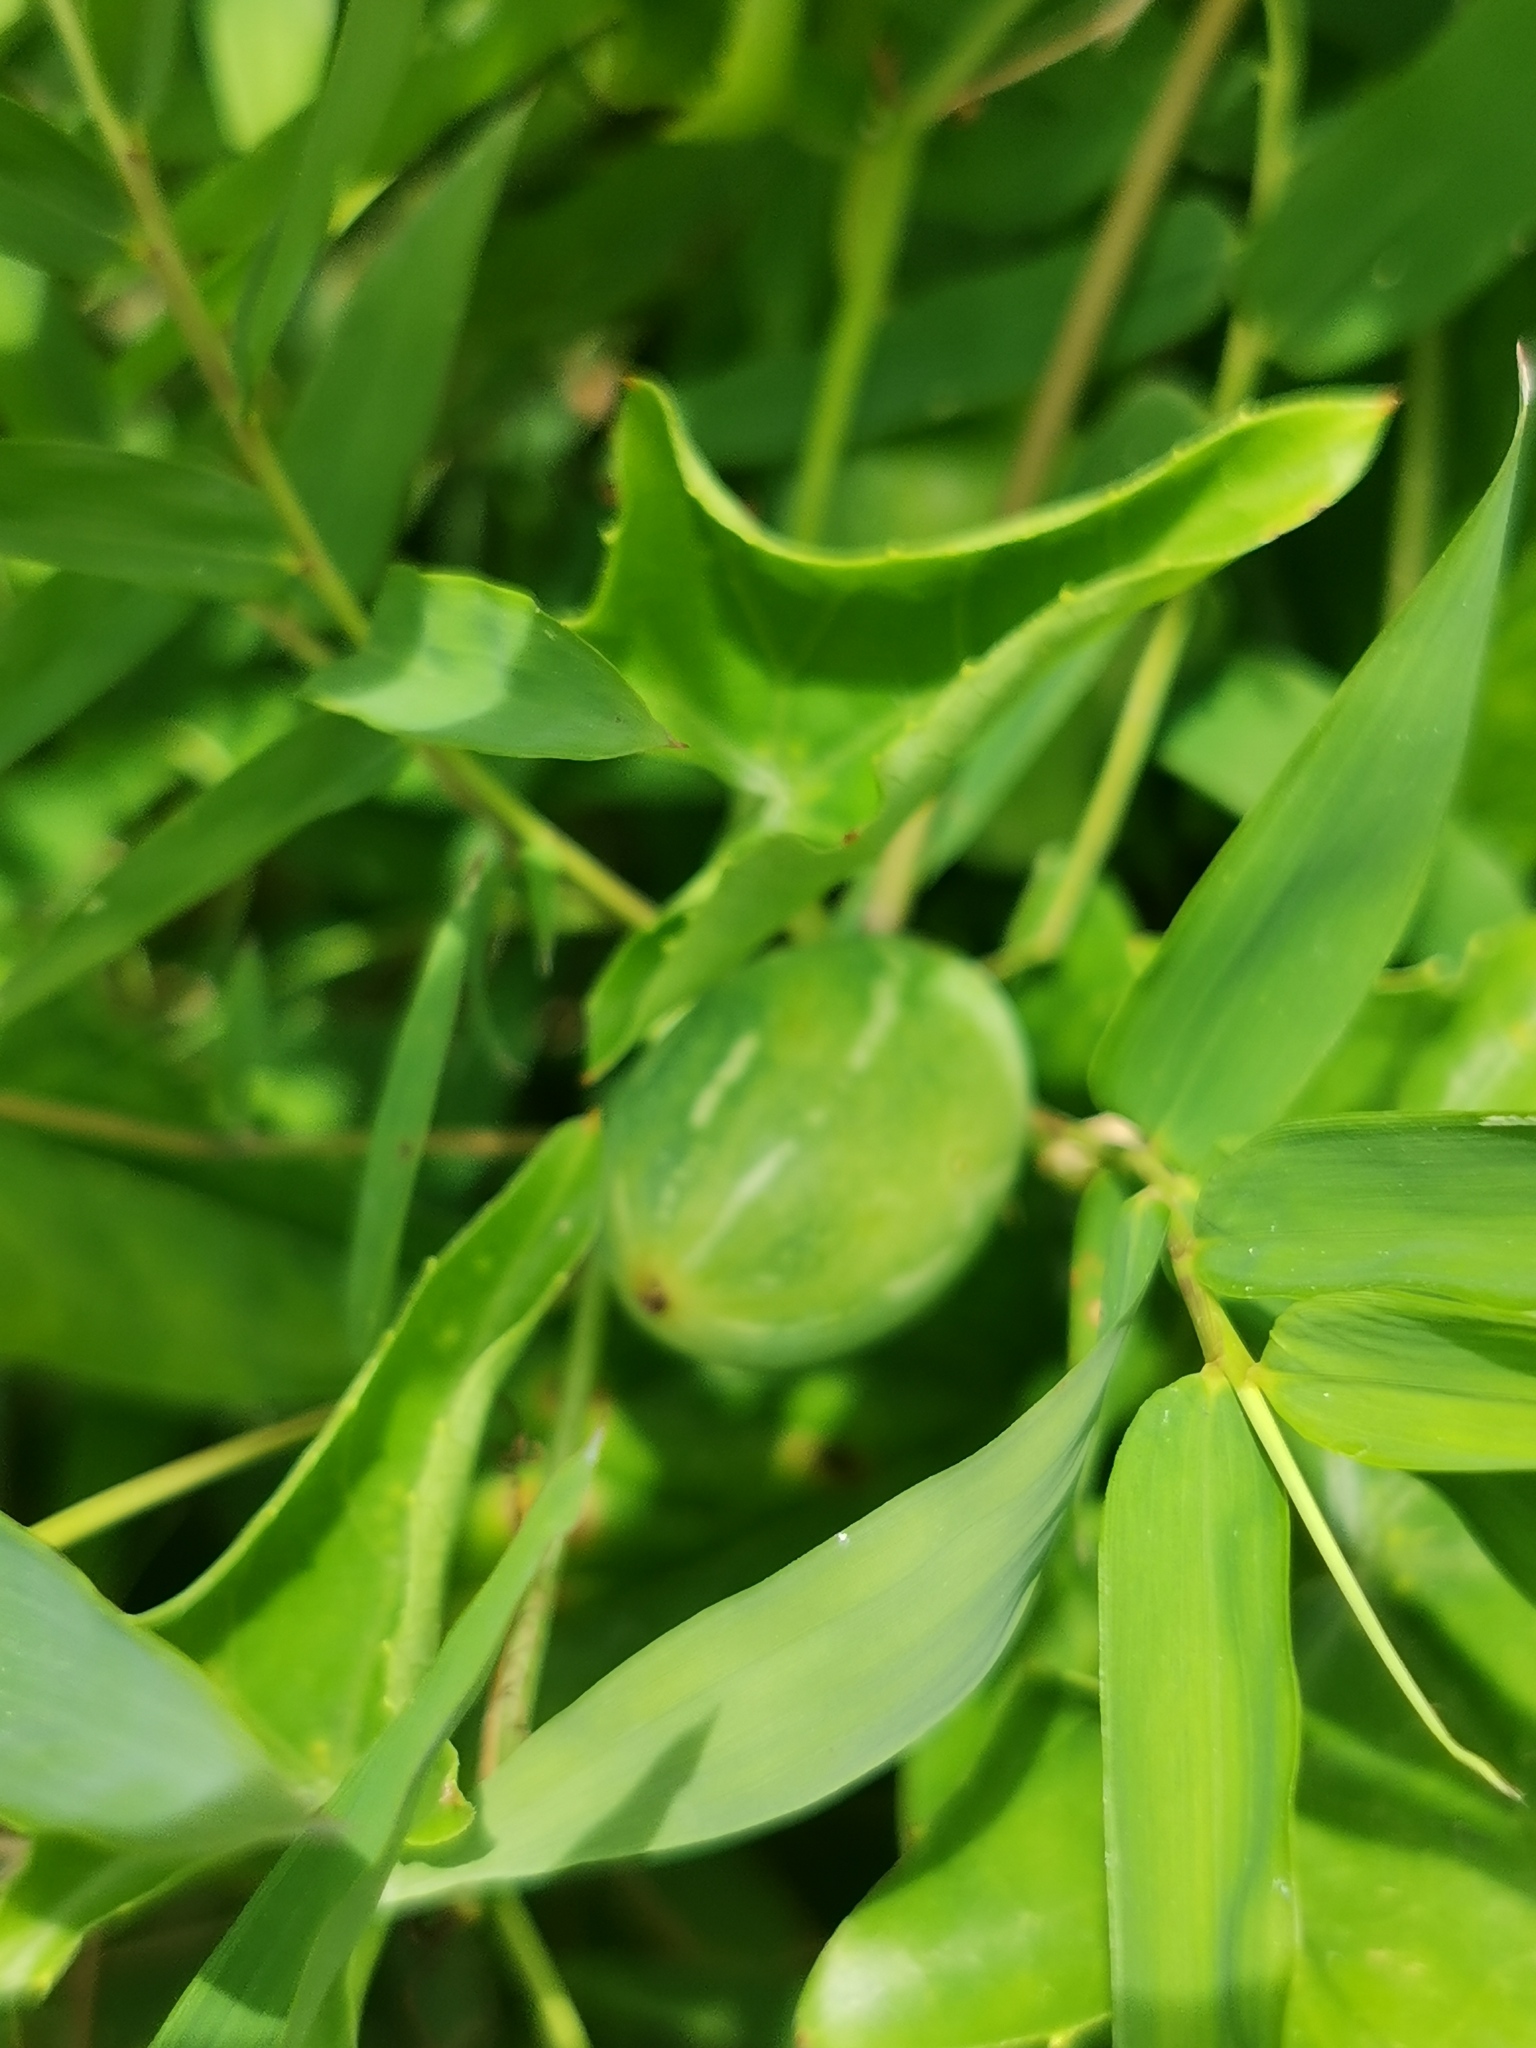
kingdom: Plantae
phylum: Tracheophyta
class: Magnoliopsida
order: Cucurbitales
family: Cucurbitaceae
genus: Coccinia
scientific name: Coccinia grandis
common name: Ivy gourd
